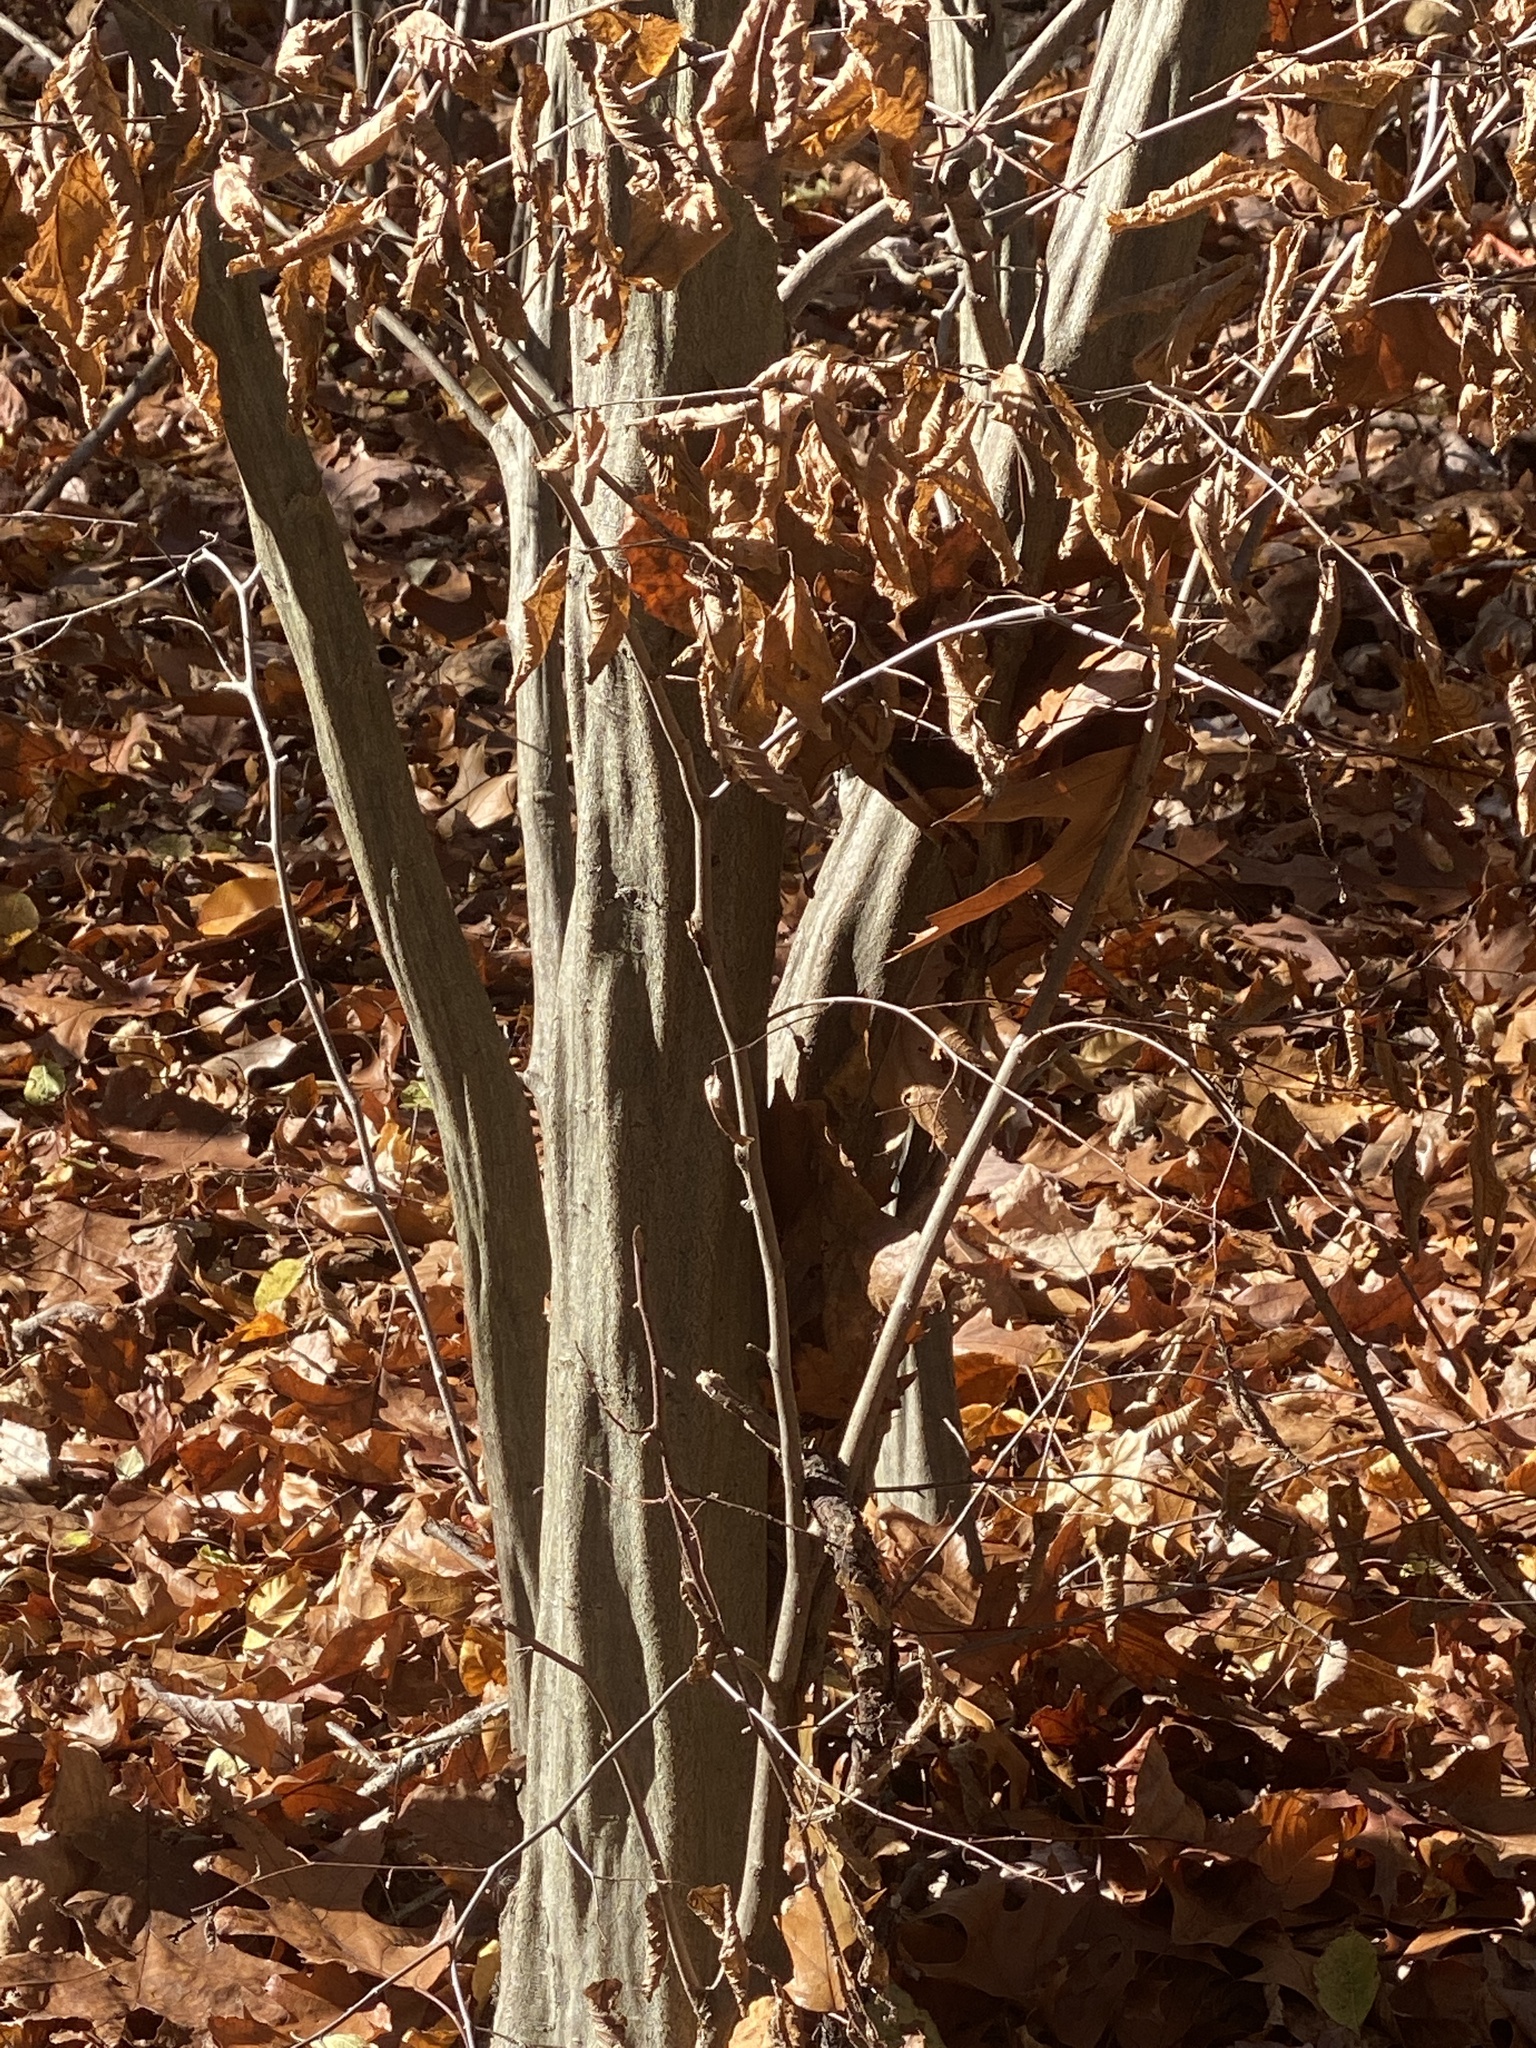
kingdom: Plantae
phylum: Tracheophyta
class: Magnoliopsida
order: Fagales
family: Betulaceae
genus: Carpinus
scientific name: Carpinus caroliniana
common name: American hornbeam
